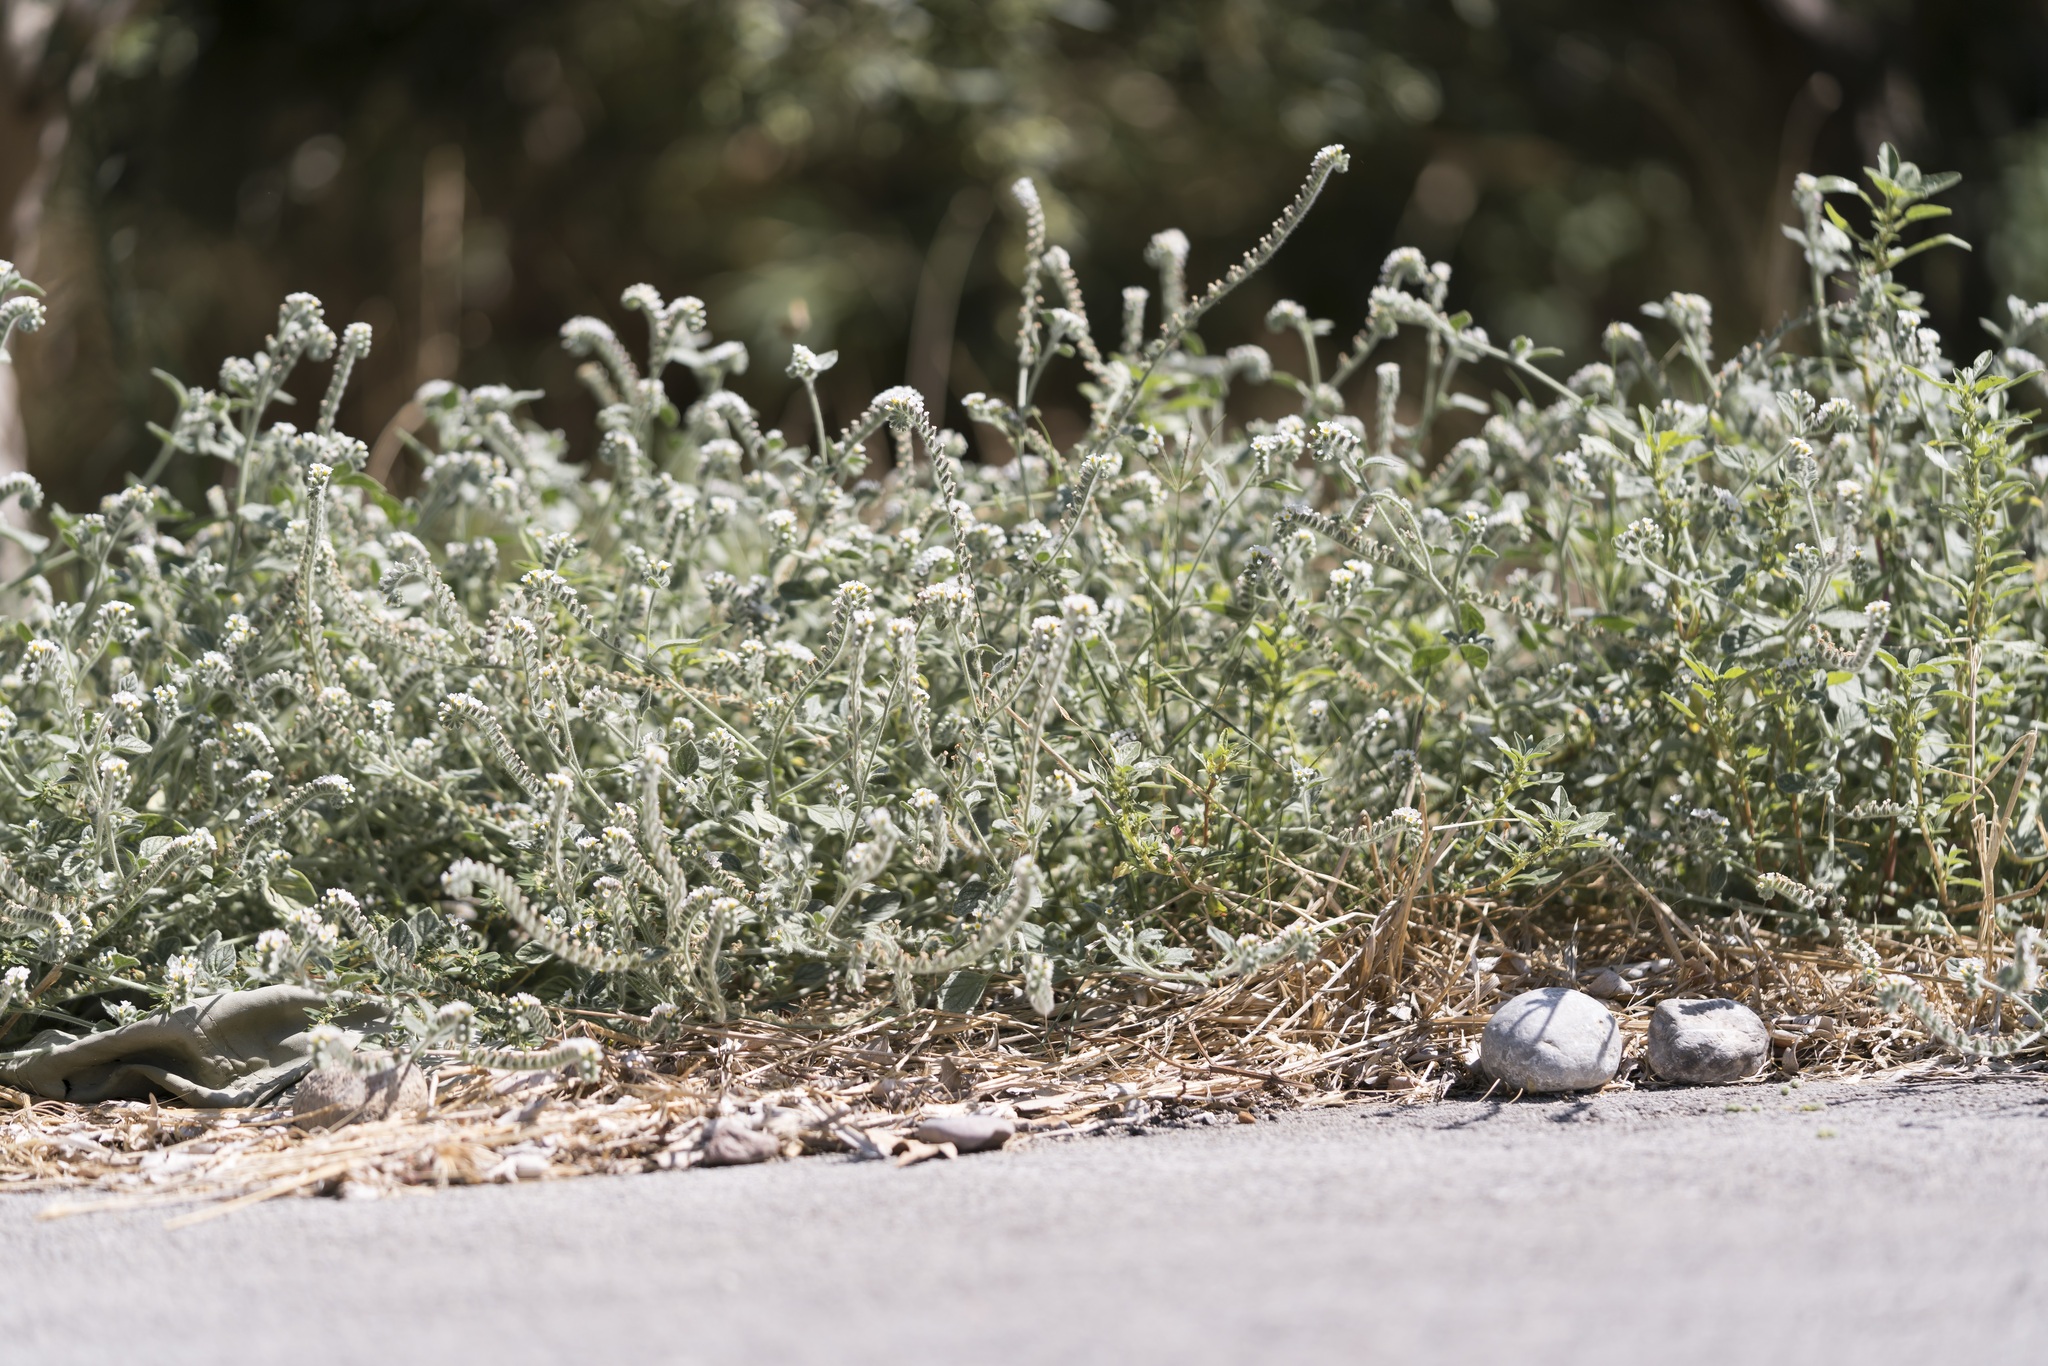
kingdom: Plantae
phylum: Tracheophyta
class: Magnoliopsida
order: Boraginales
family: Heliotropiaceae
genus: Heliotropium
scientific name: Heliotropium hirsutissimum
